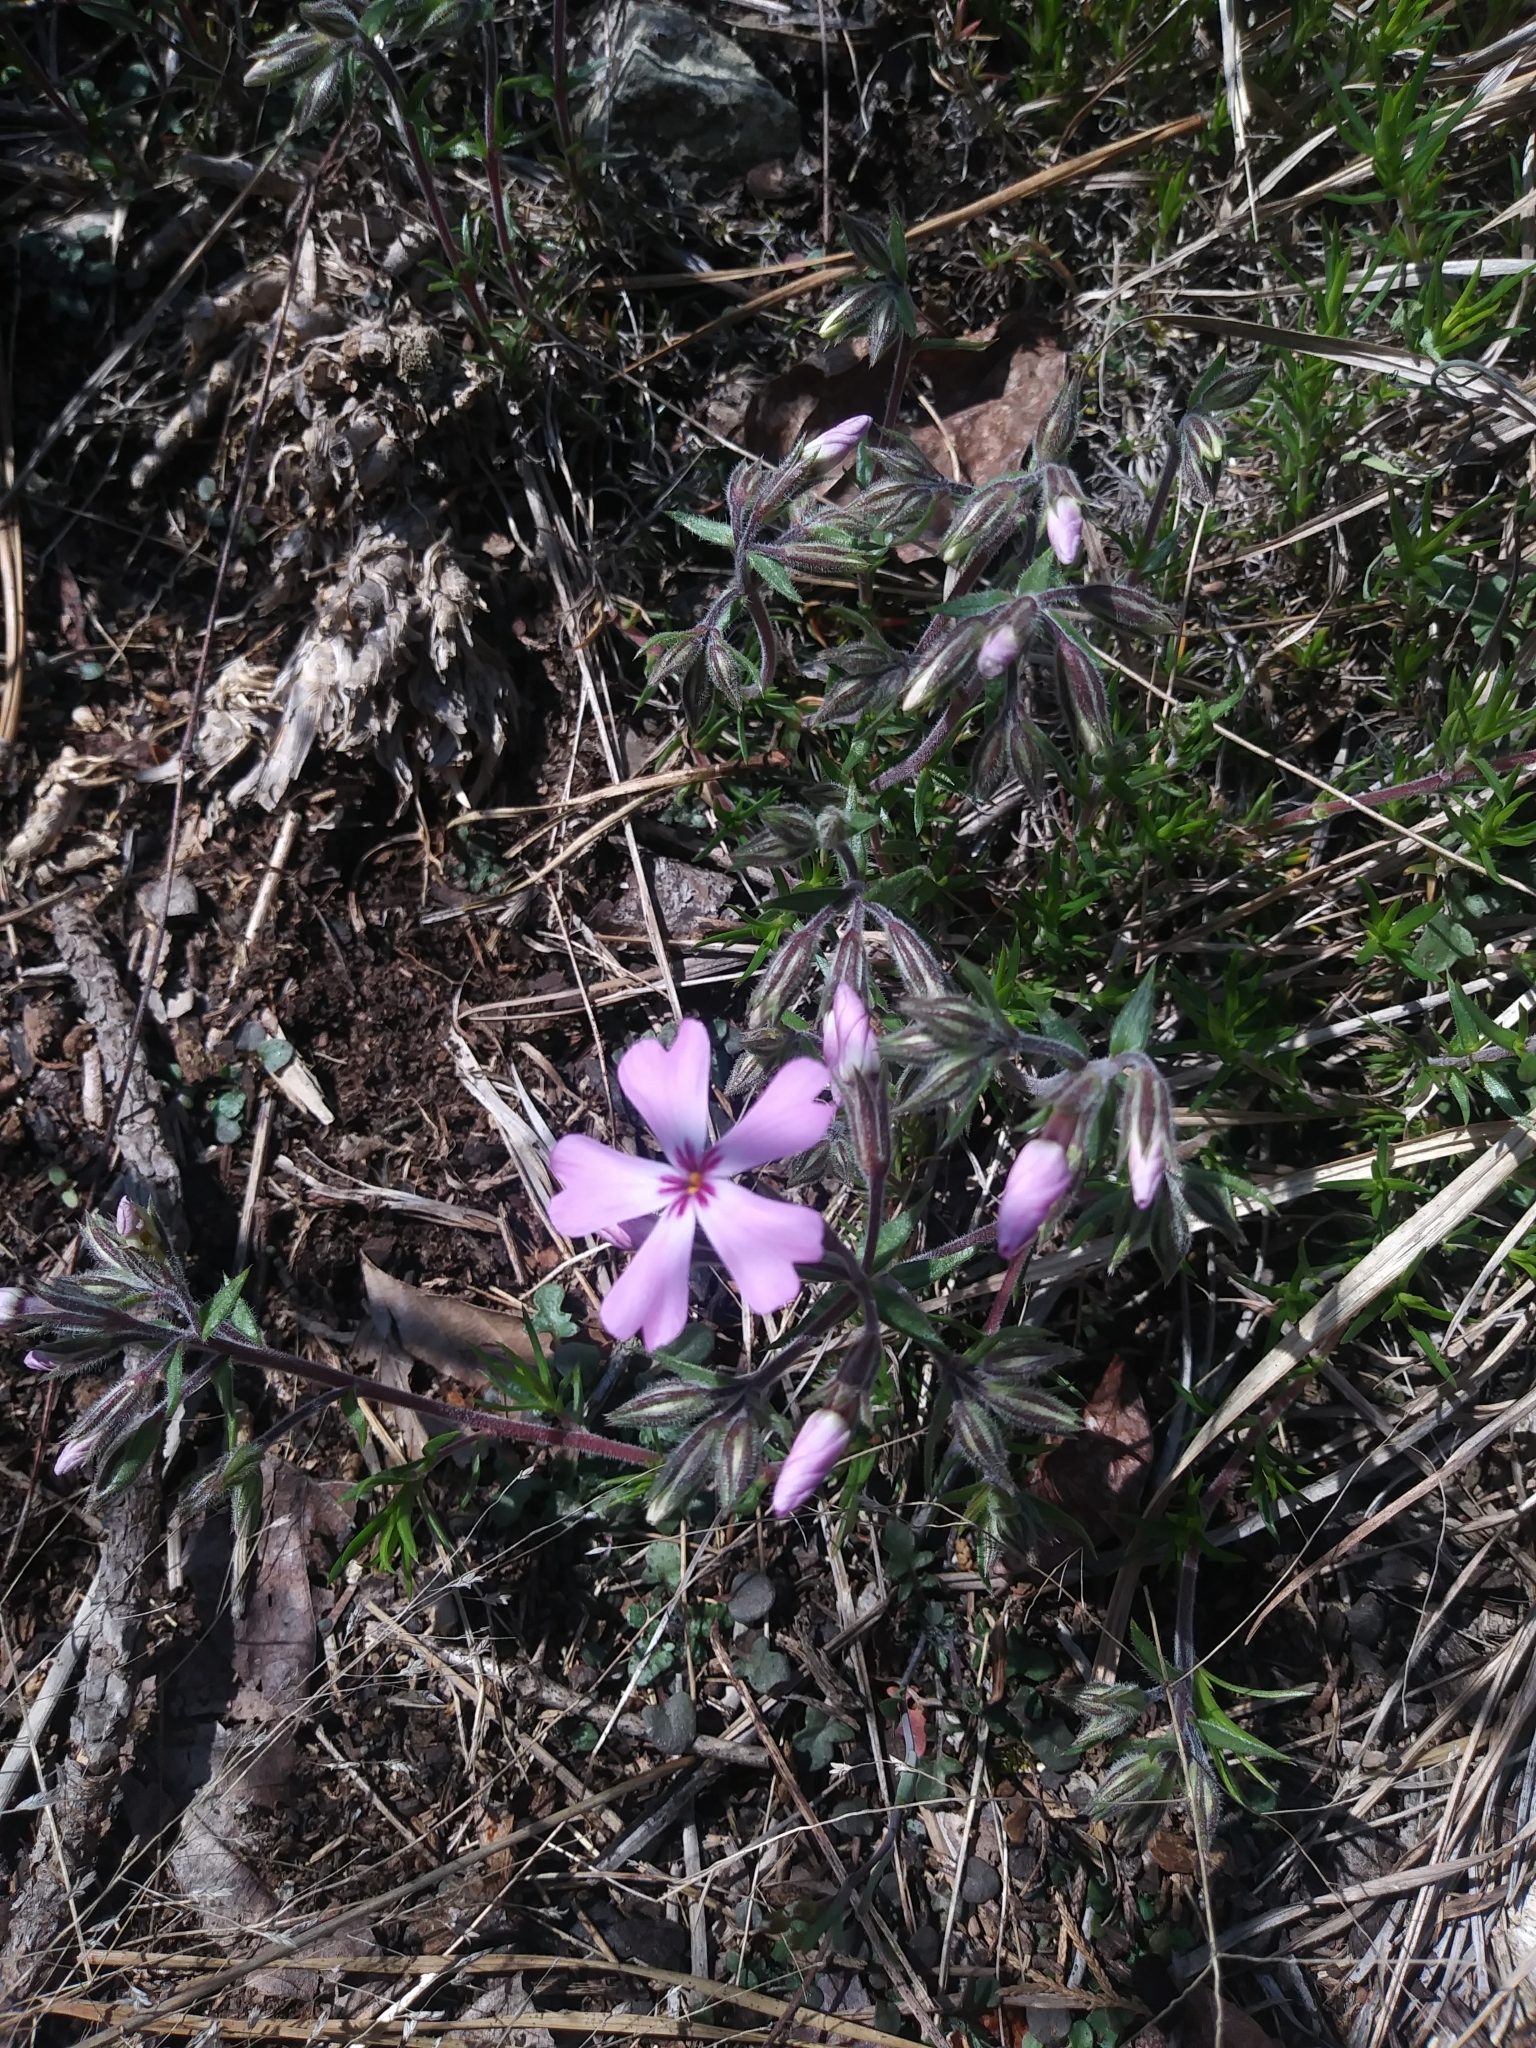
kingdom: Plantae
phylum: Tracheophyta
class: Magnoliopsida
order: Ericales
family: Polemoniaceae
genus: Phlox
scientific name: Phlox subulata
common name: Moss phlox
